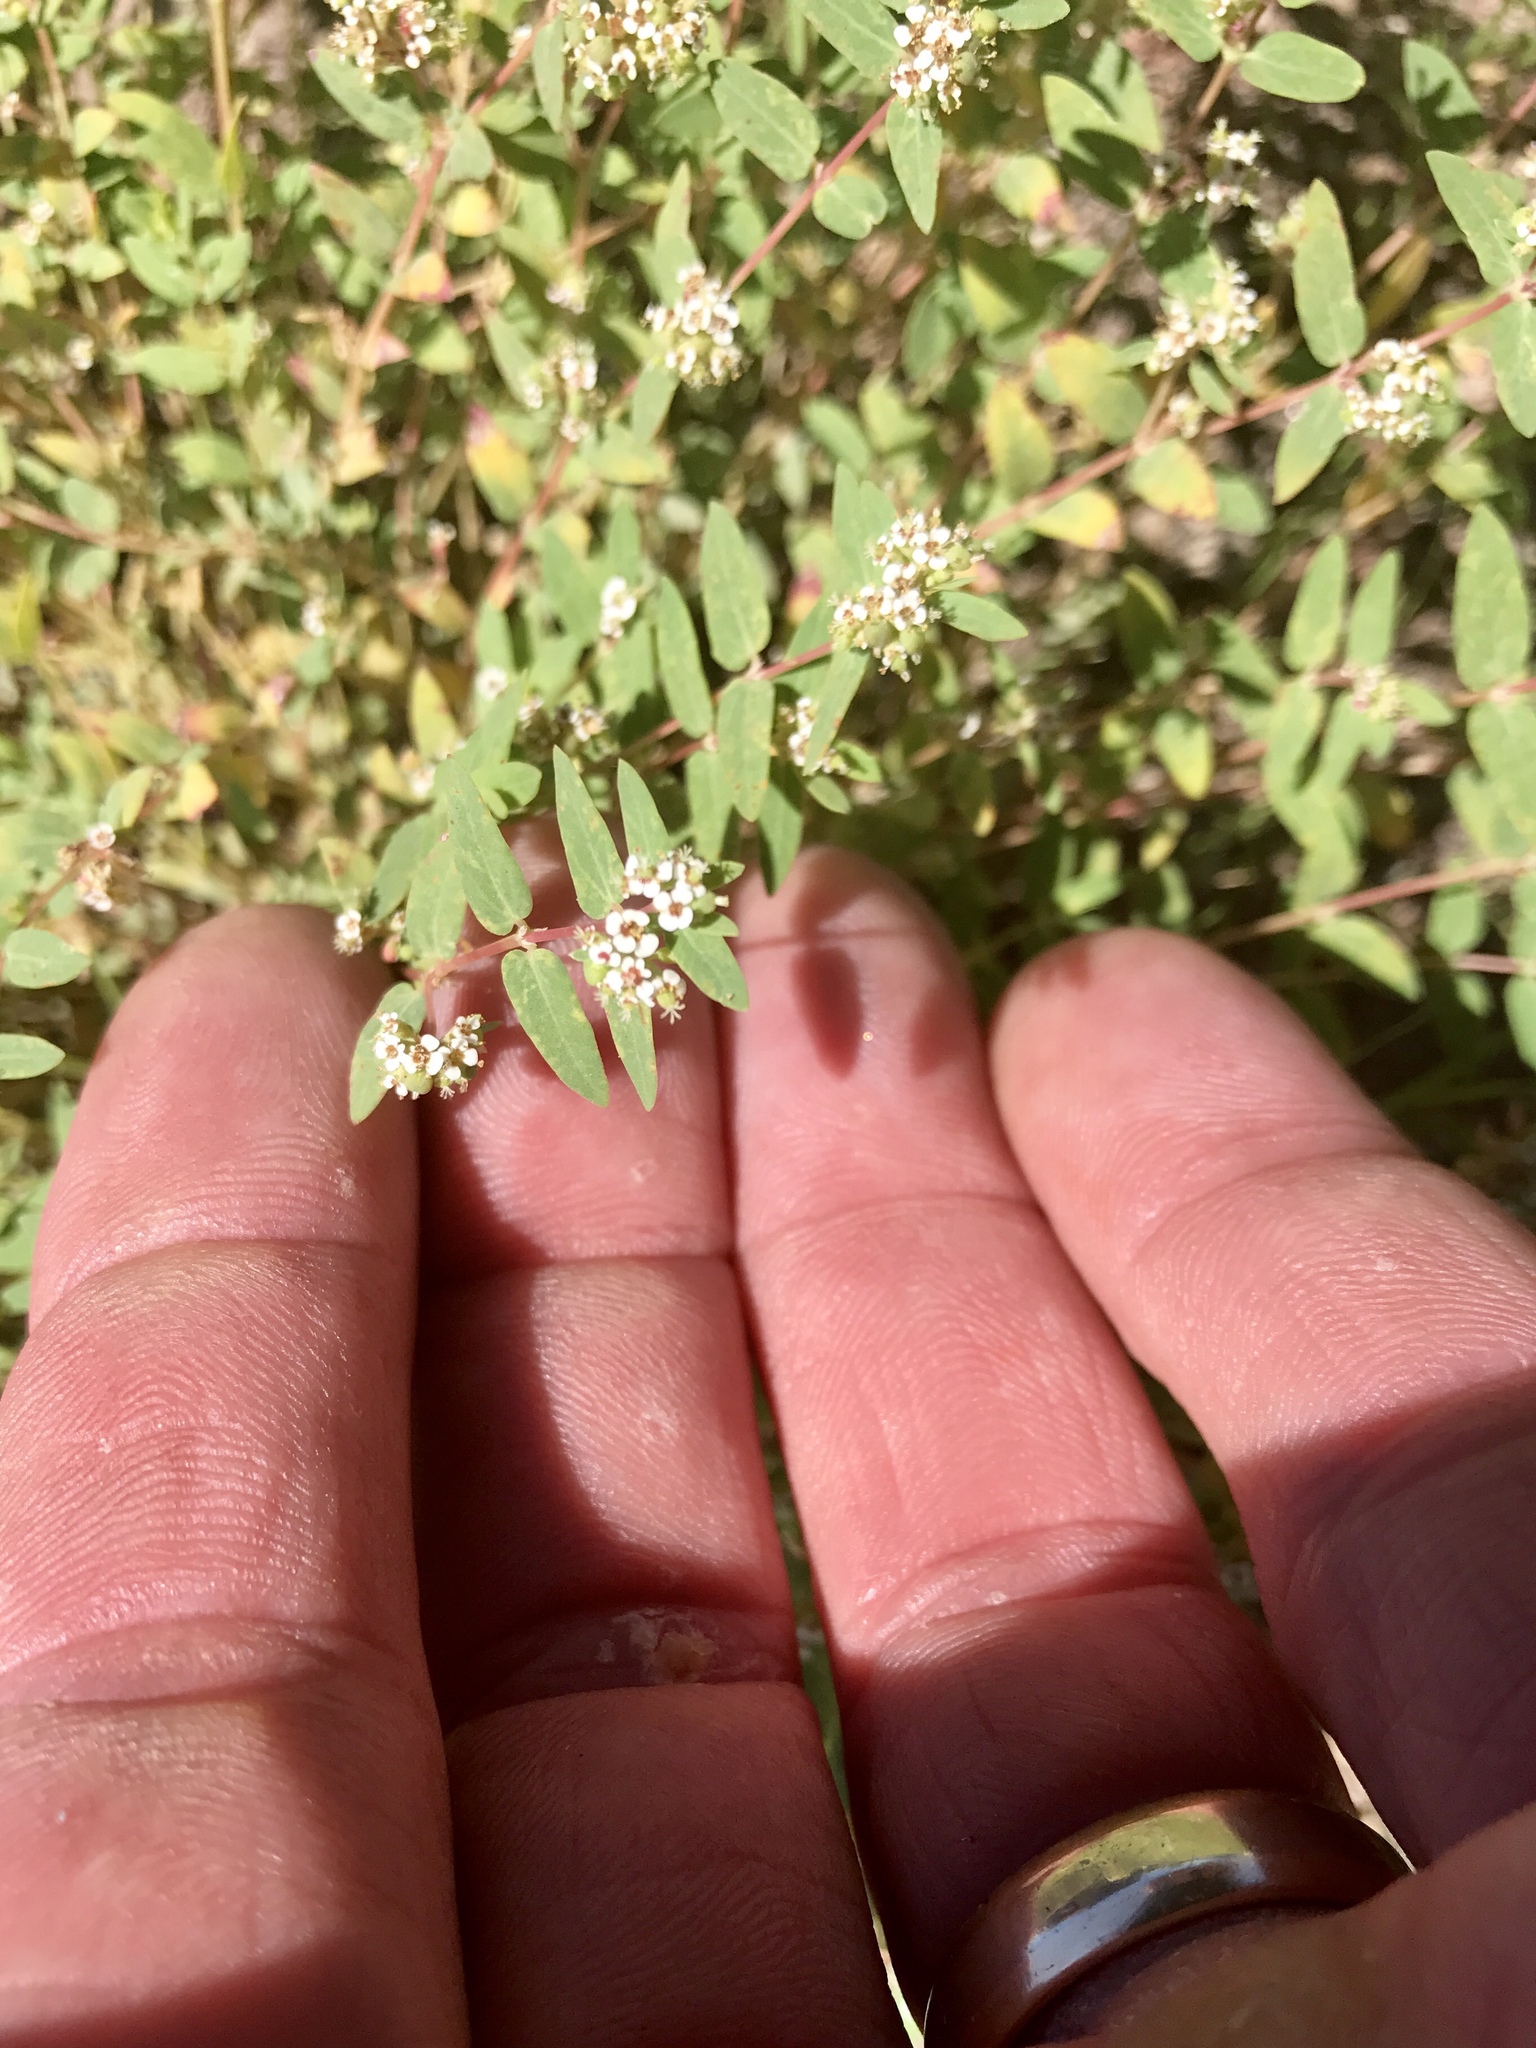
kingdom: Plantae
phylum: Tracheophyta
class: Magnoliopsida
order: Malpighiales
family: Euphorbiaceae
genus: Euphorbia
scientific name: Euphorbia capitellata
